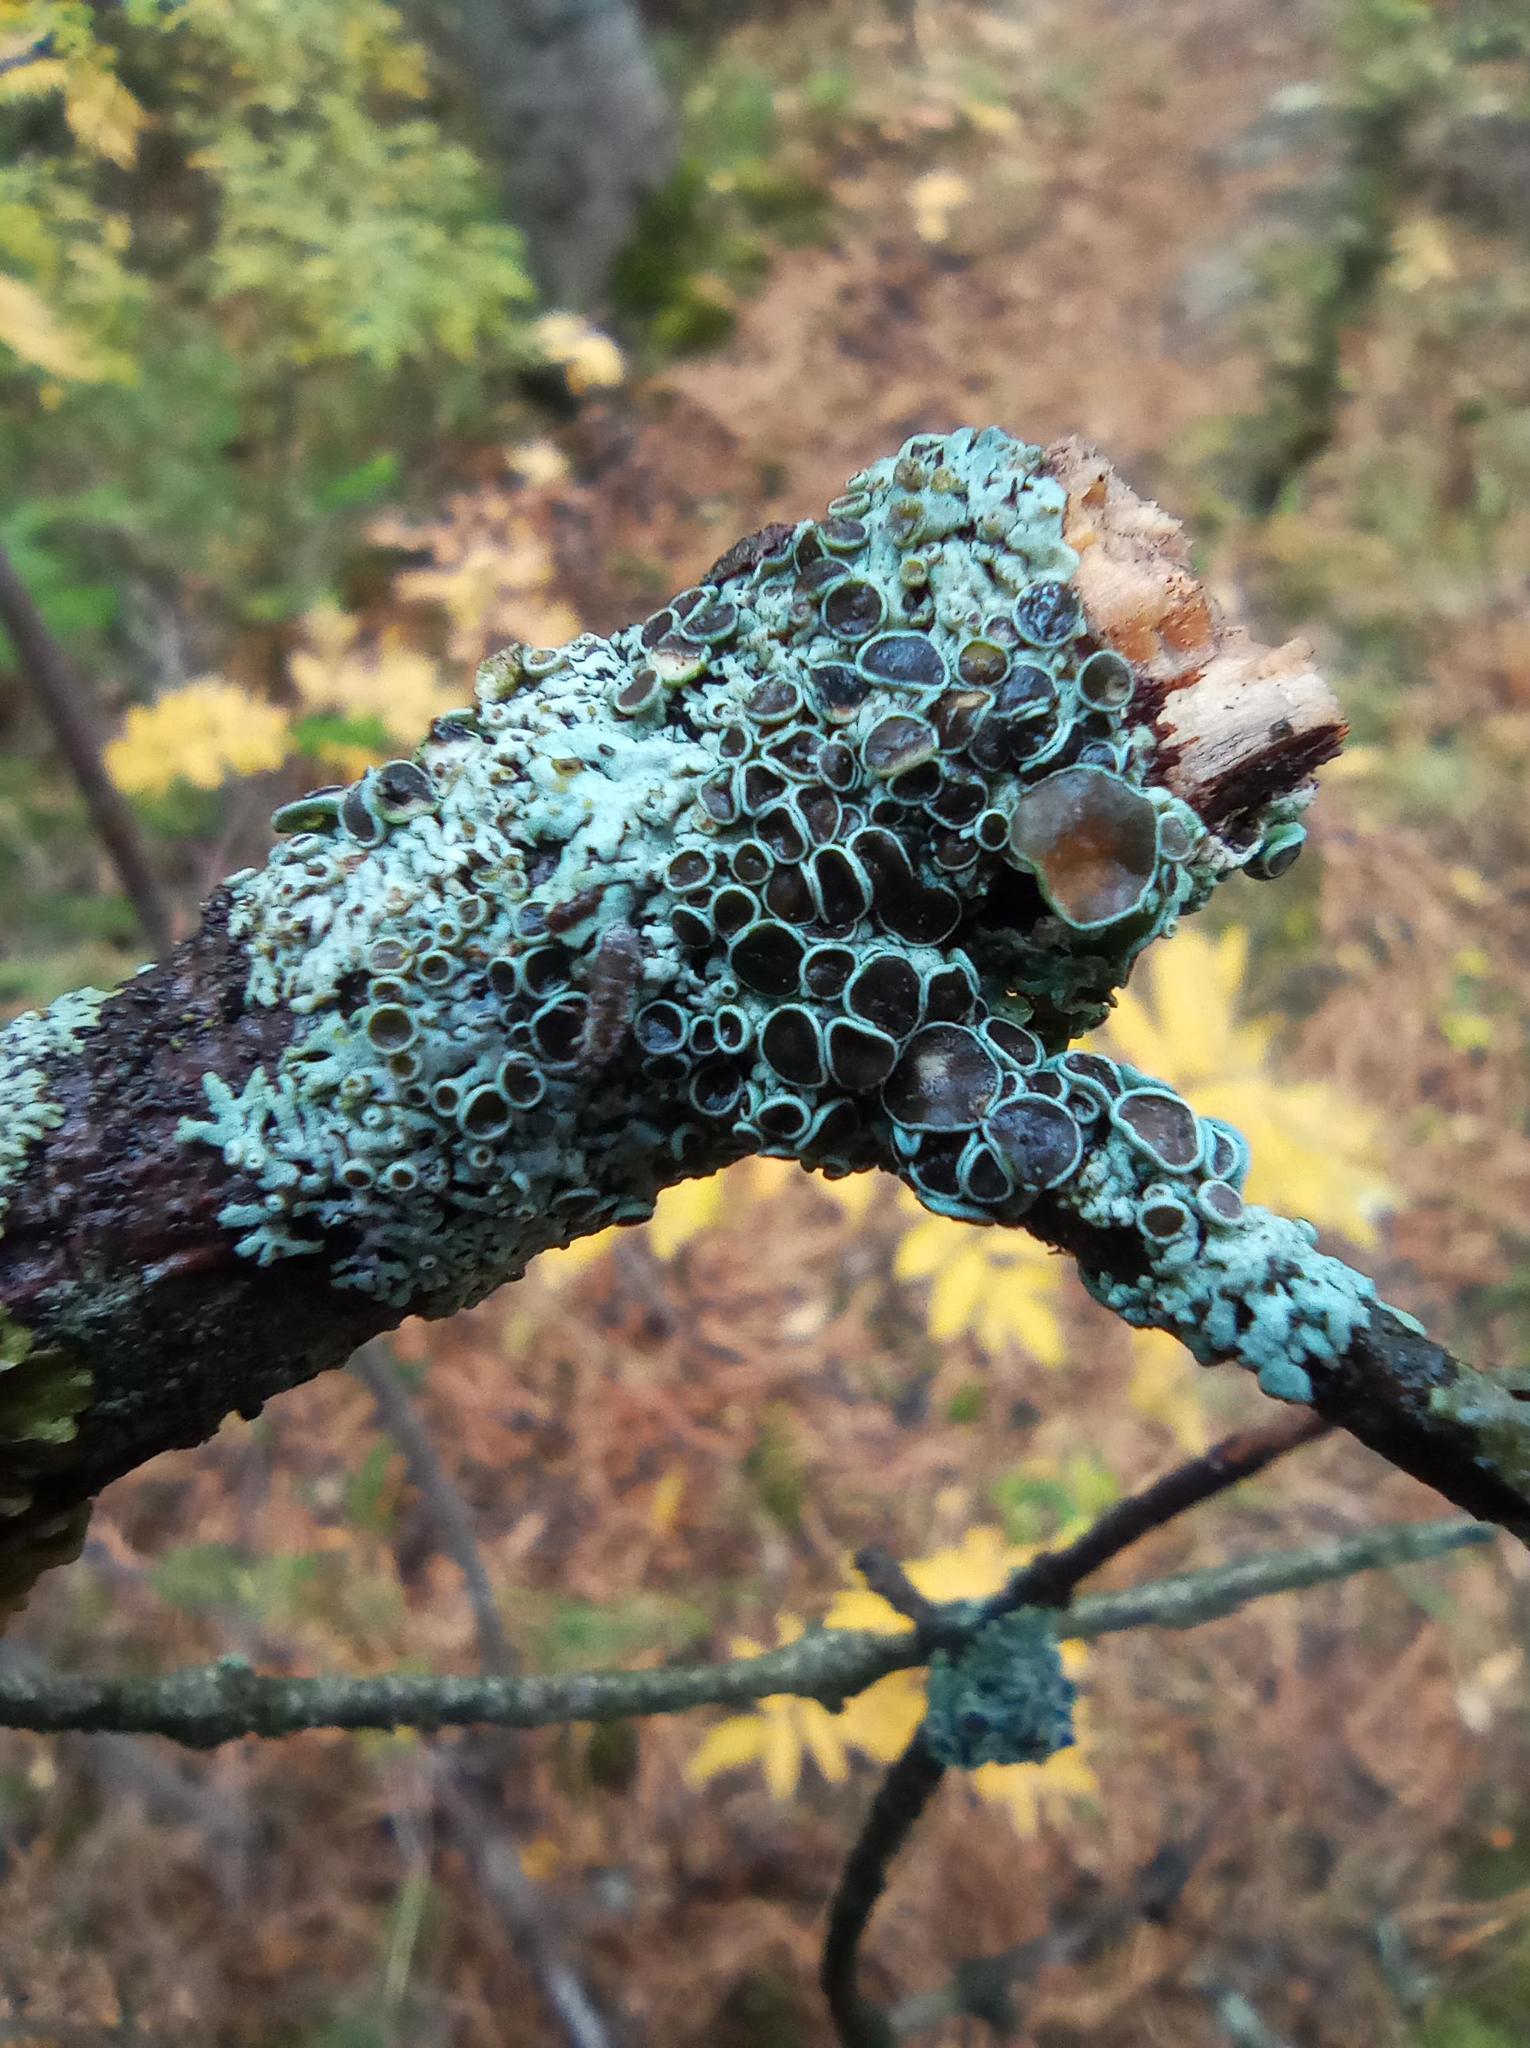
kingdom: Fungi
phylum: Ascomycota
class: Lecanoromycetes
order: Caliciales
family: Physciaceae
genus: Physcia
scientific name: Physcia stellaris
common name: Star rosette lichen
